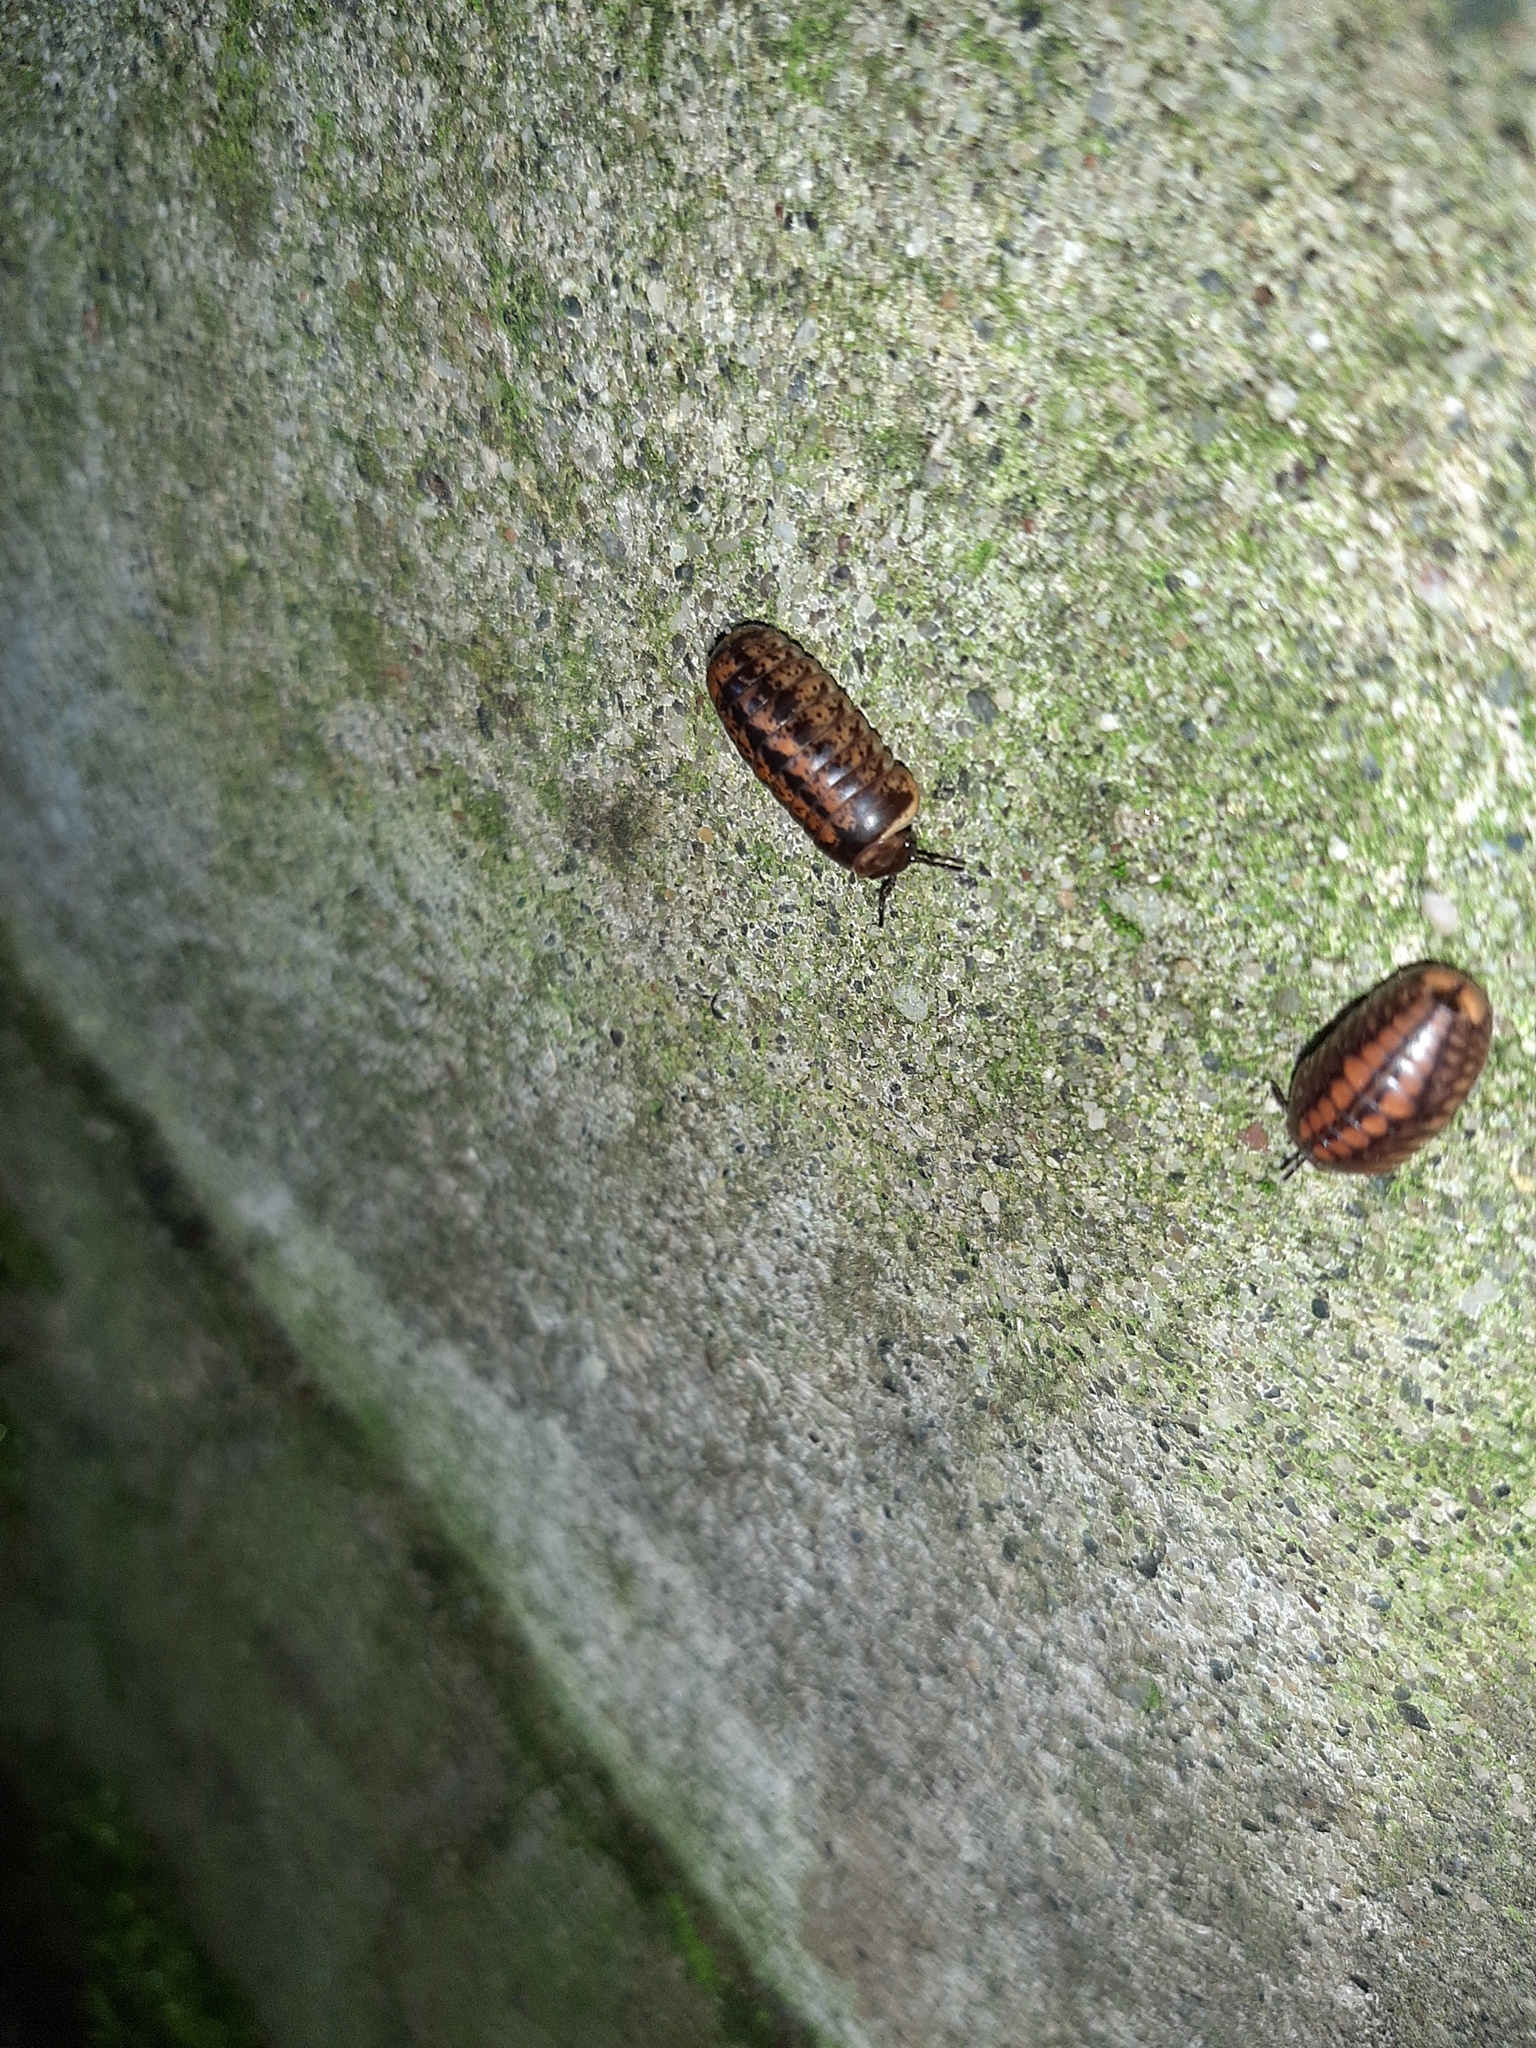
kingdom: Animalia
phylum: Arthropoda
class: Diplopoda
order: Glomerida
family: Glomeridae
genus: Glomeris
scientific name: Glomeris klugii
